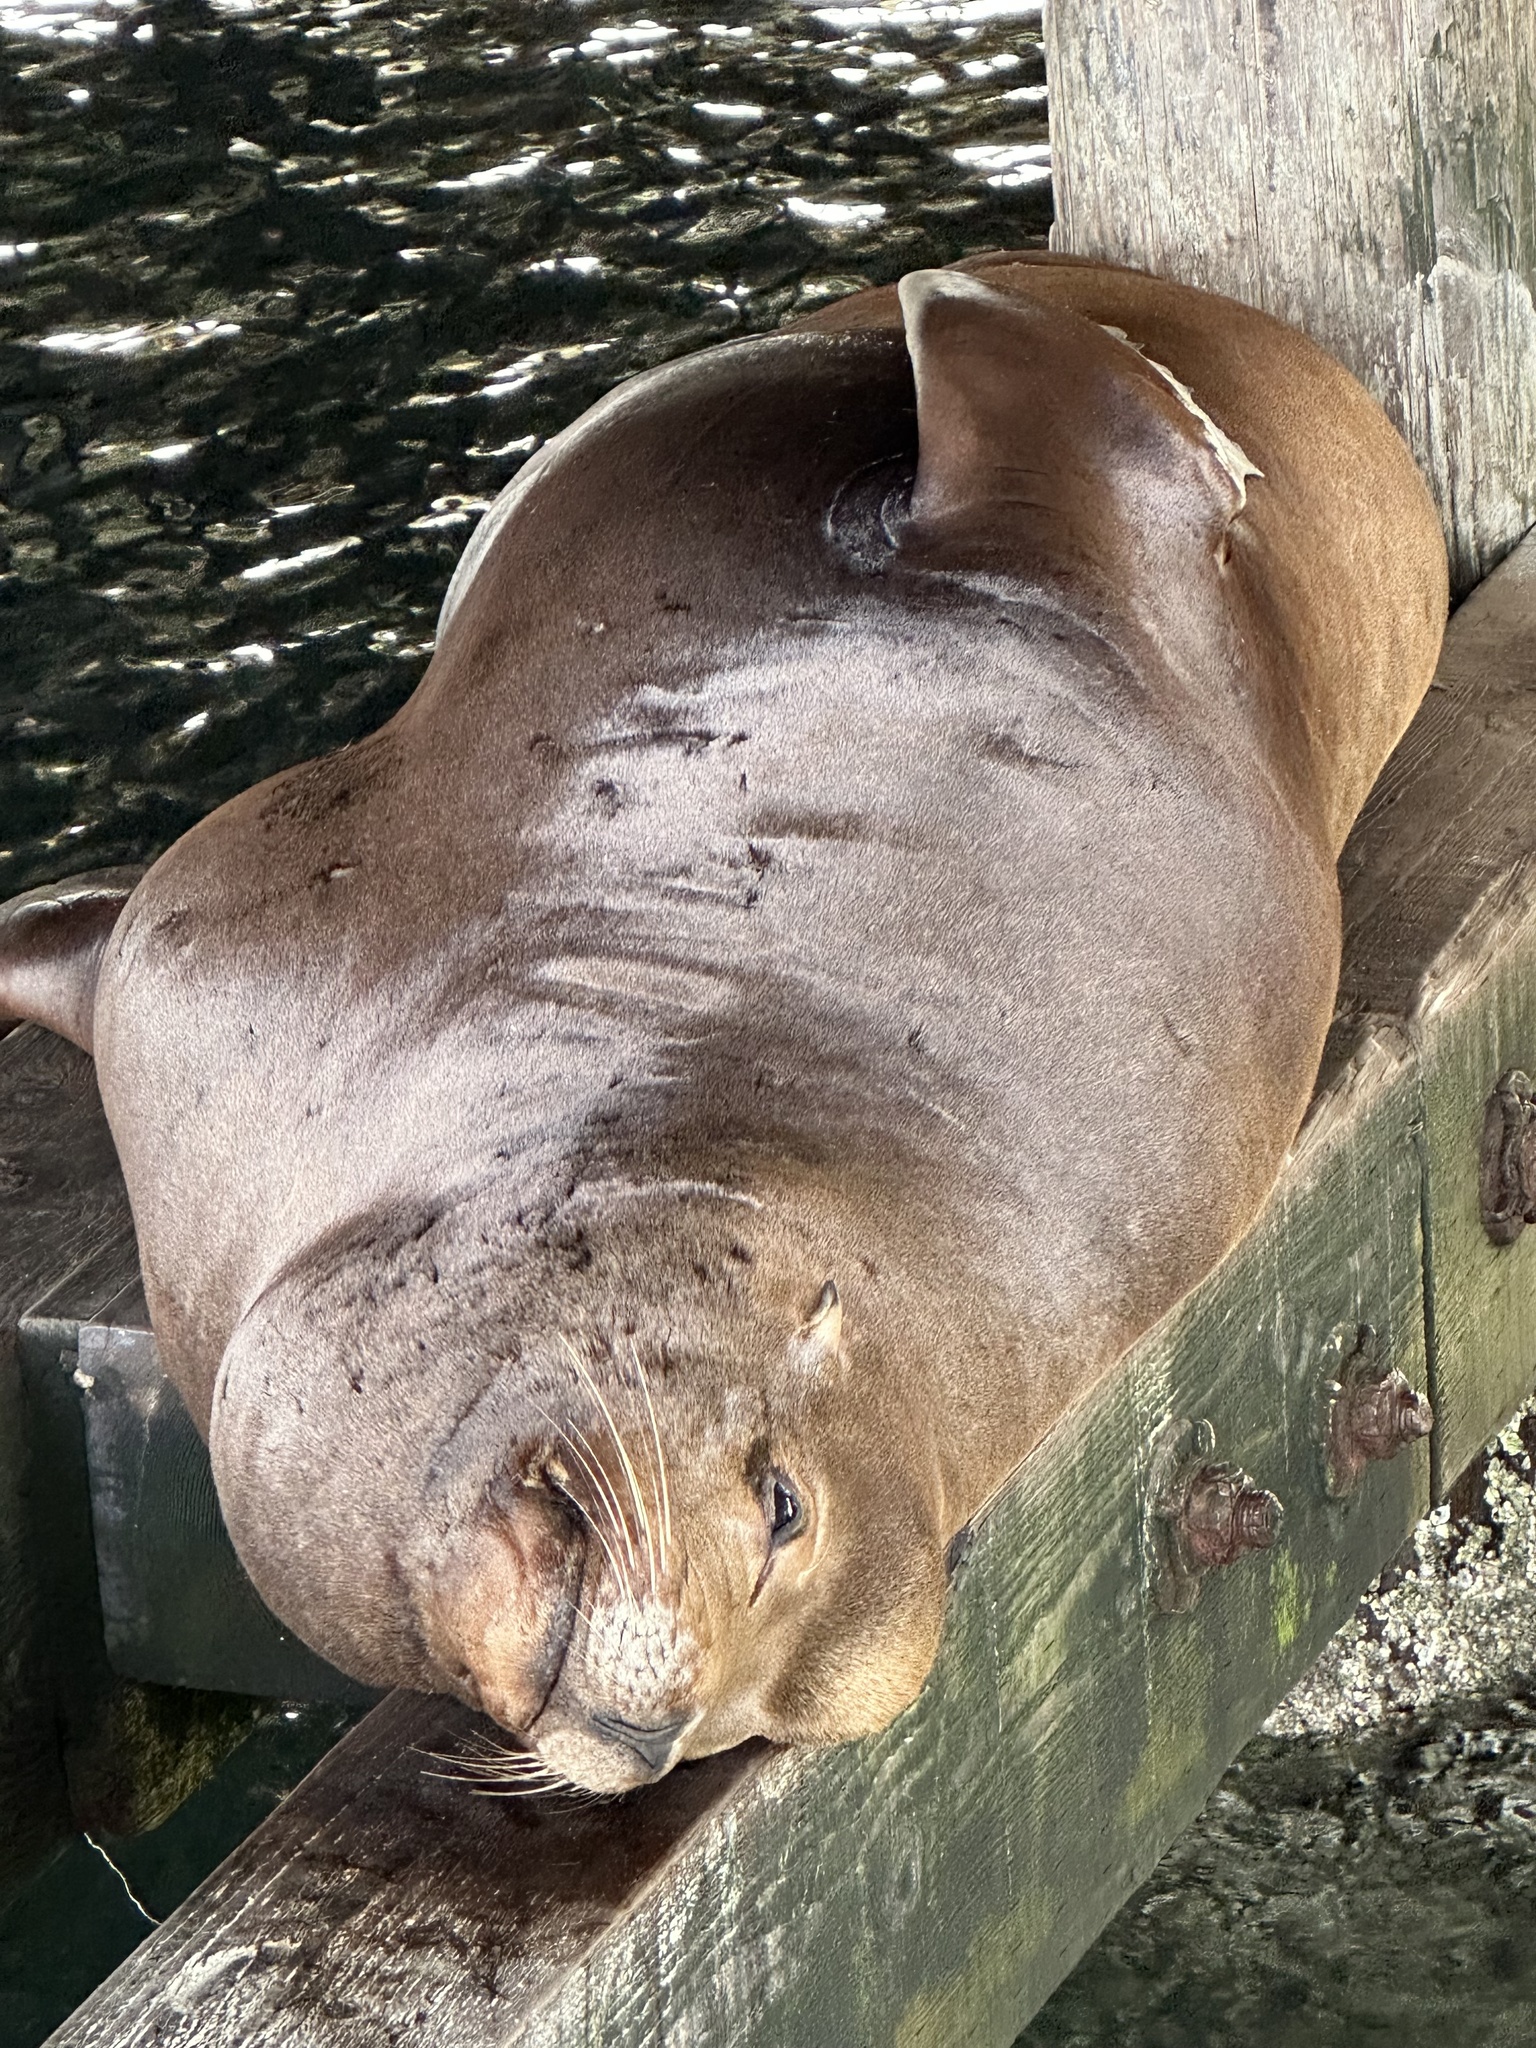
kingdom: Animalia
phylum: Chordata
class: Mammalia
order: Carnivora
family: Otariidae
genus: Zalophus
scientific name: Zalophus californianus
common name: California sea lion
